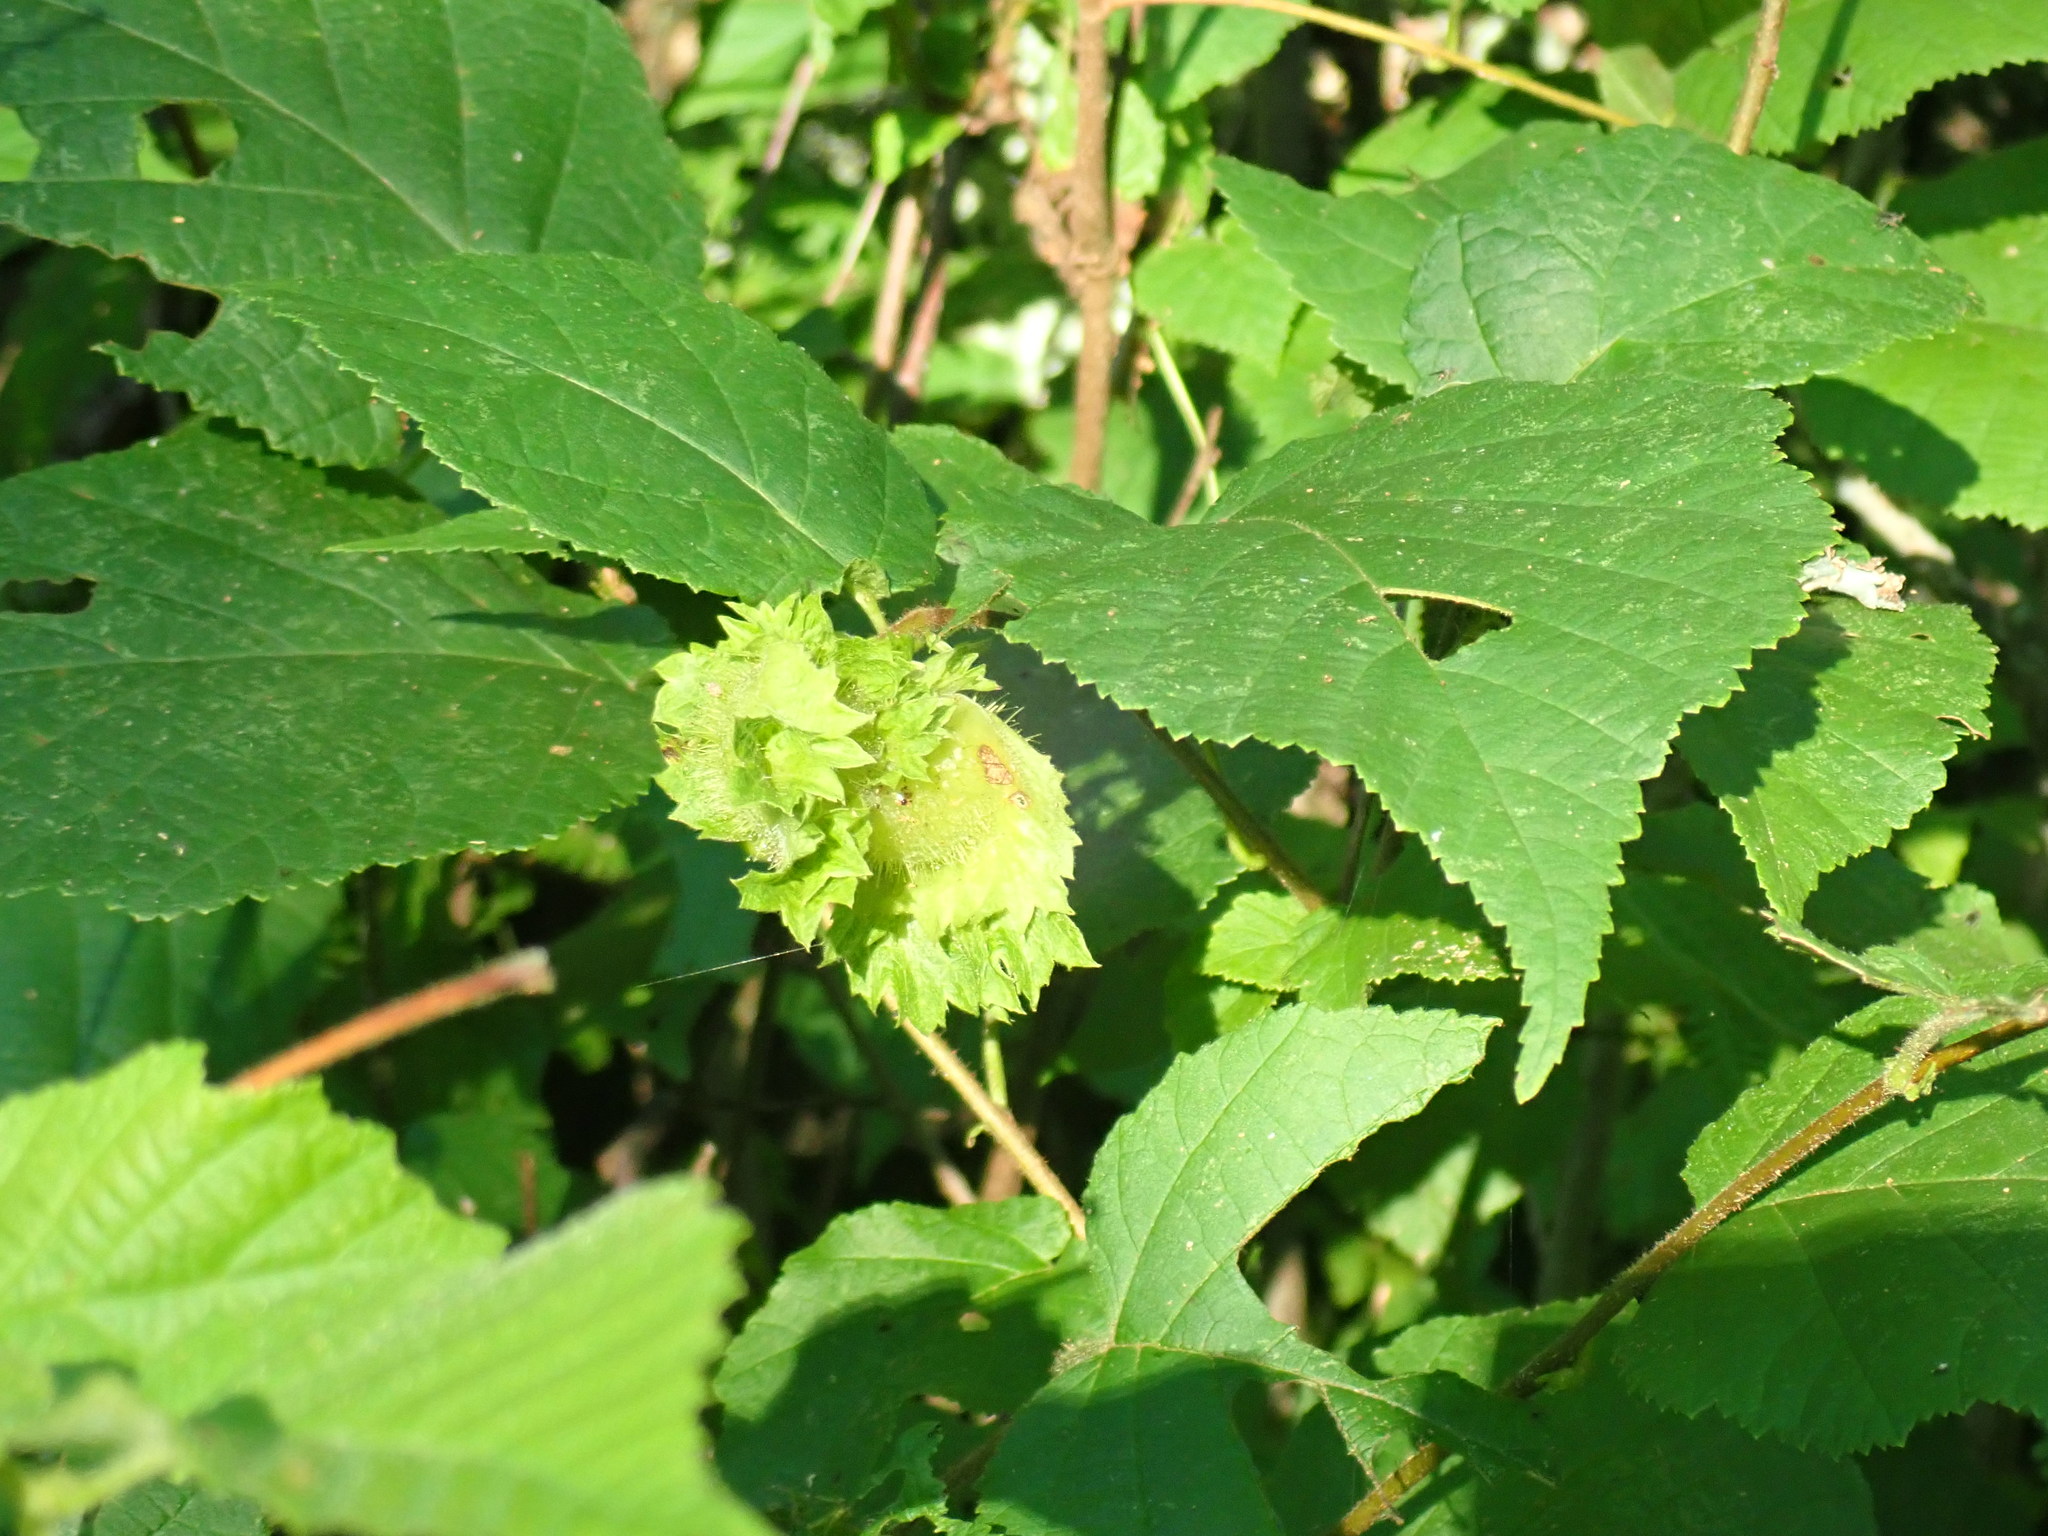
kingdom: Plantae
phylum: Tracheophyta
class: Magnoliopsida
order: Fagales
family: Betulaceae
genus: Corylus
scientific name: Corylus americana
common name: American hazel
